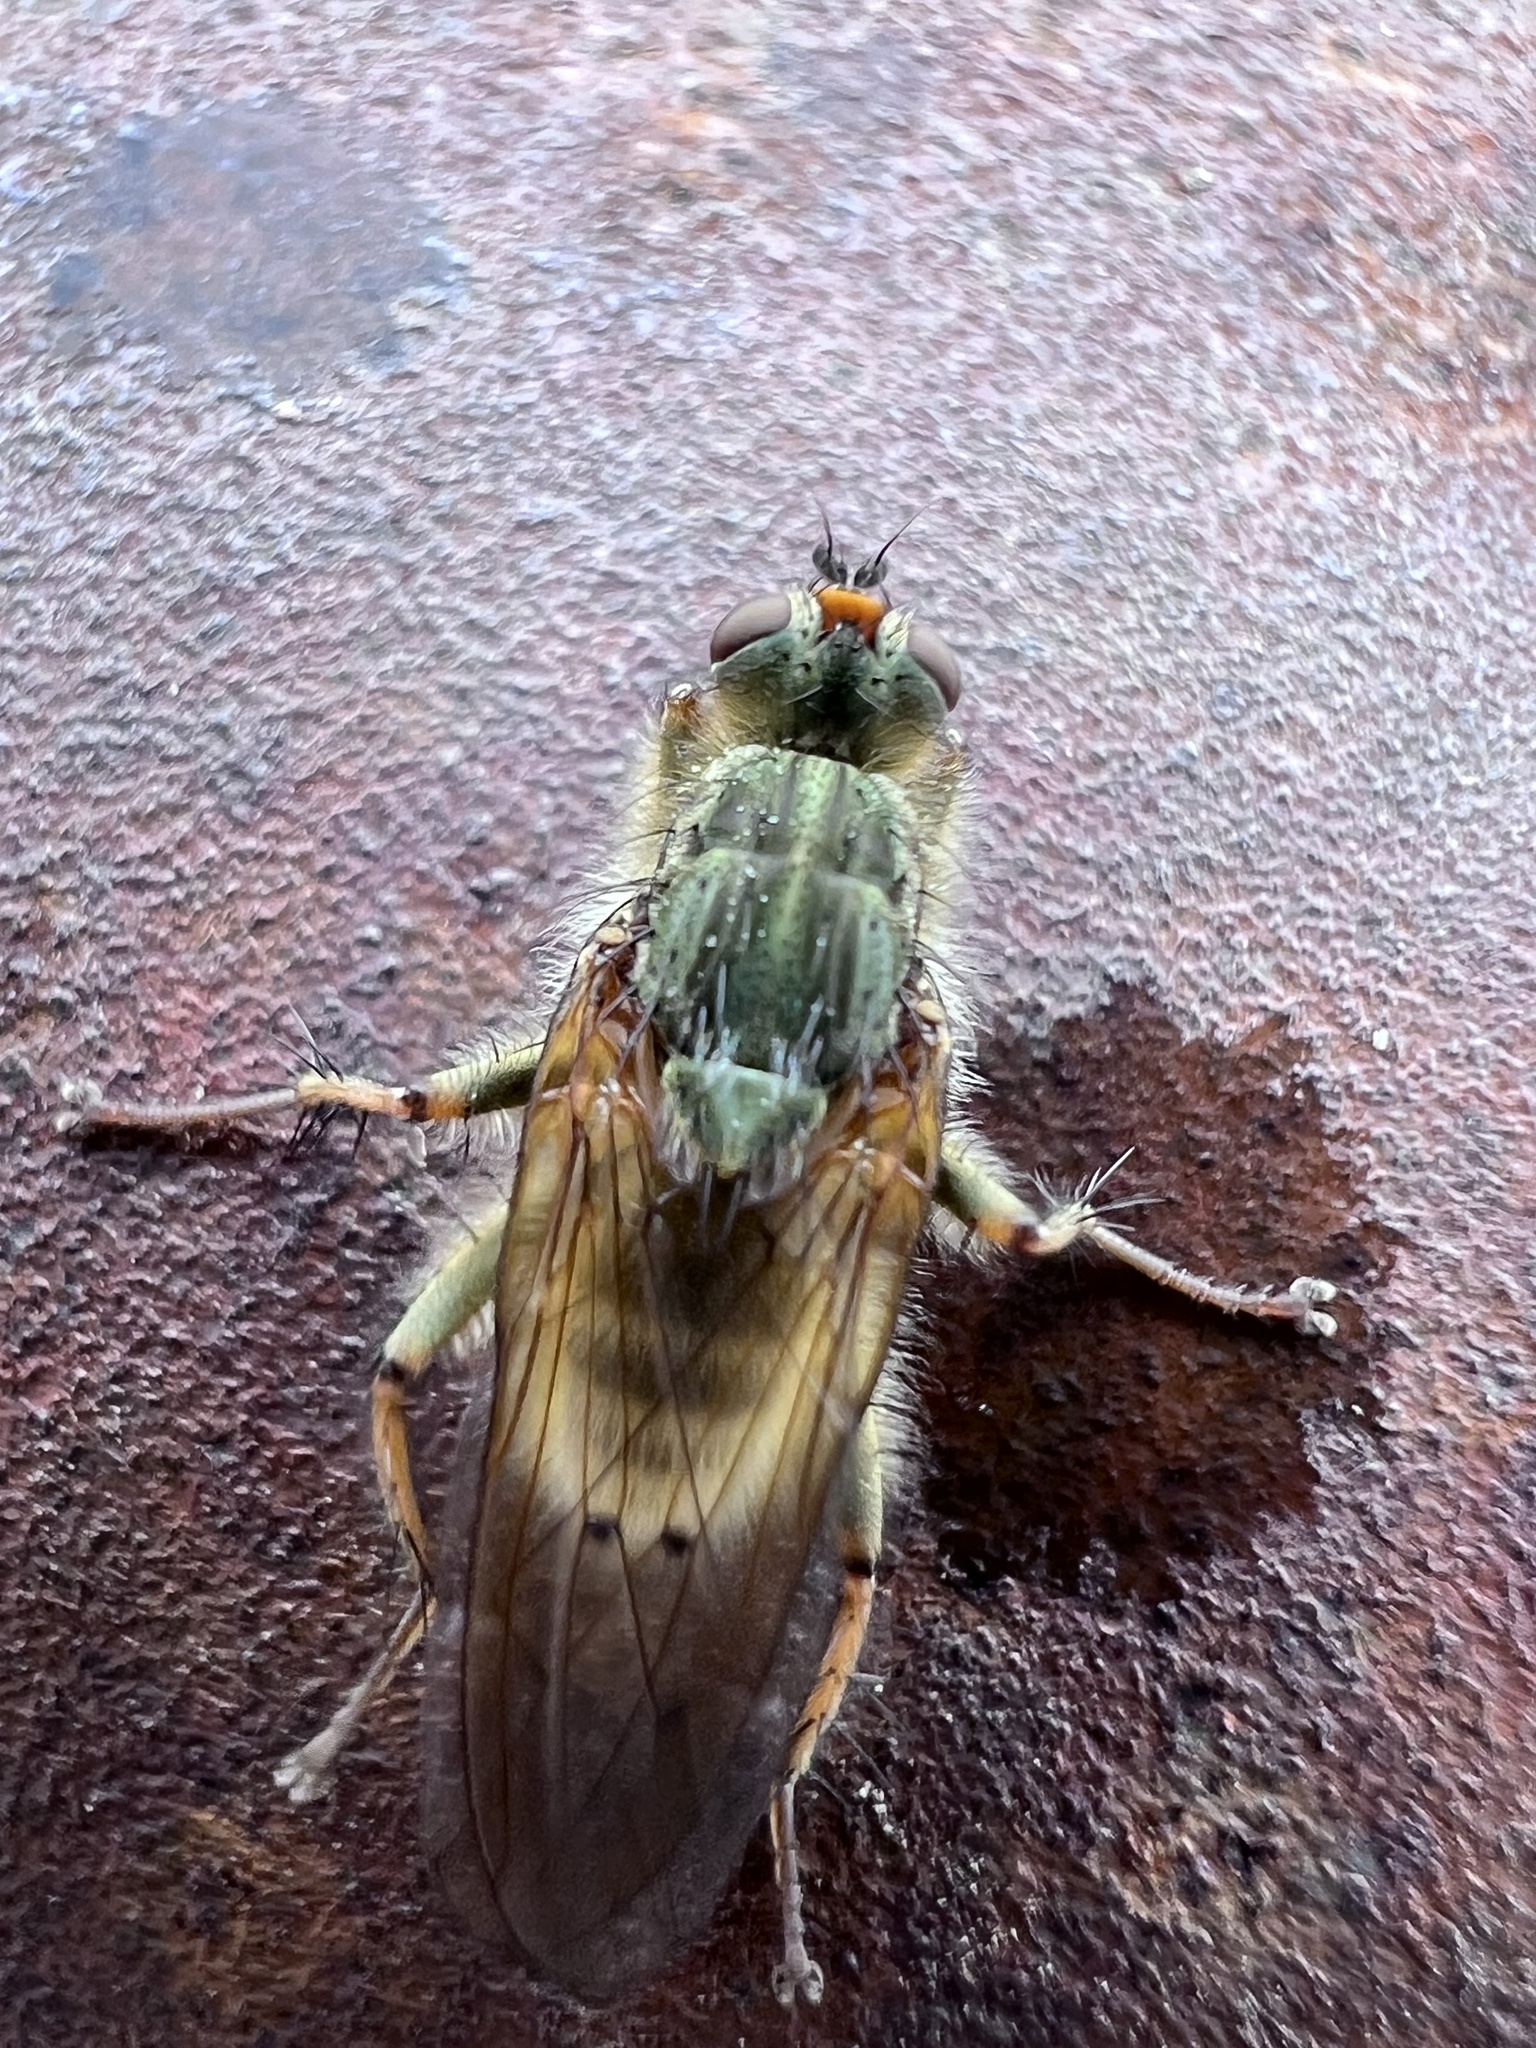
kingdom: Animalia
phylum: Arthropoda
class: Insecta
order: Diptera
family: Scathophagidae
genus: Scathophaga
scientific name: Scathophaga stercoraria
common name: Yellow dung fly
